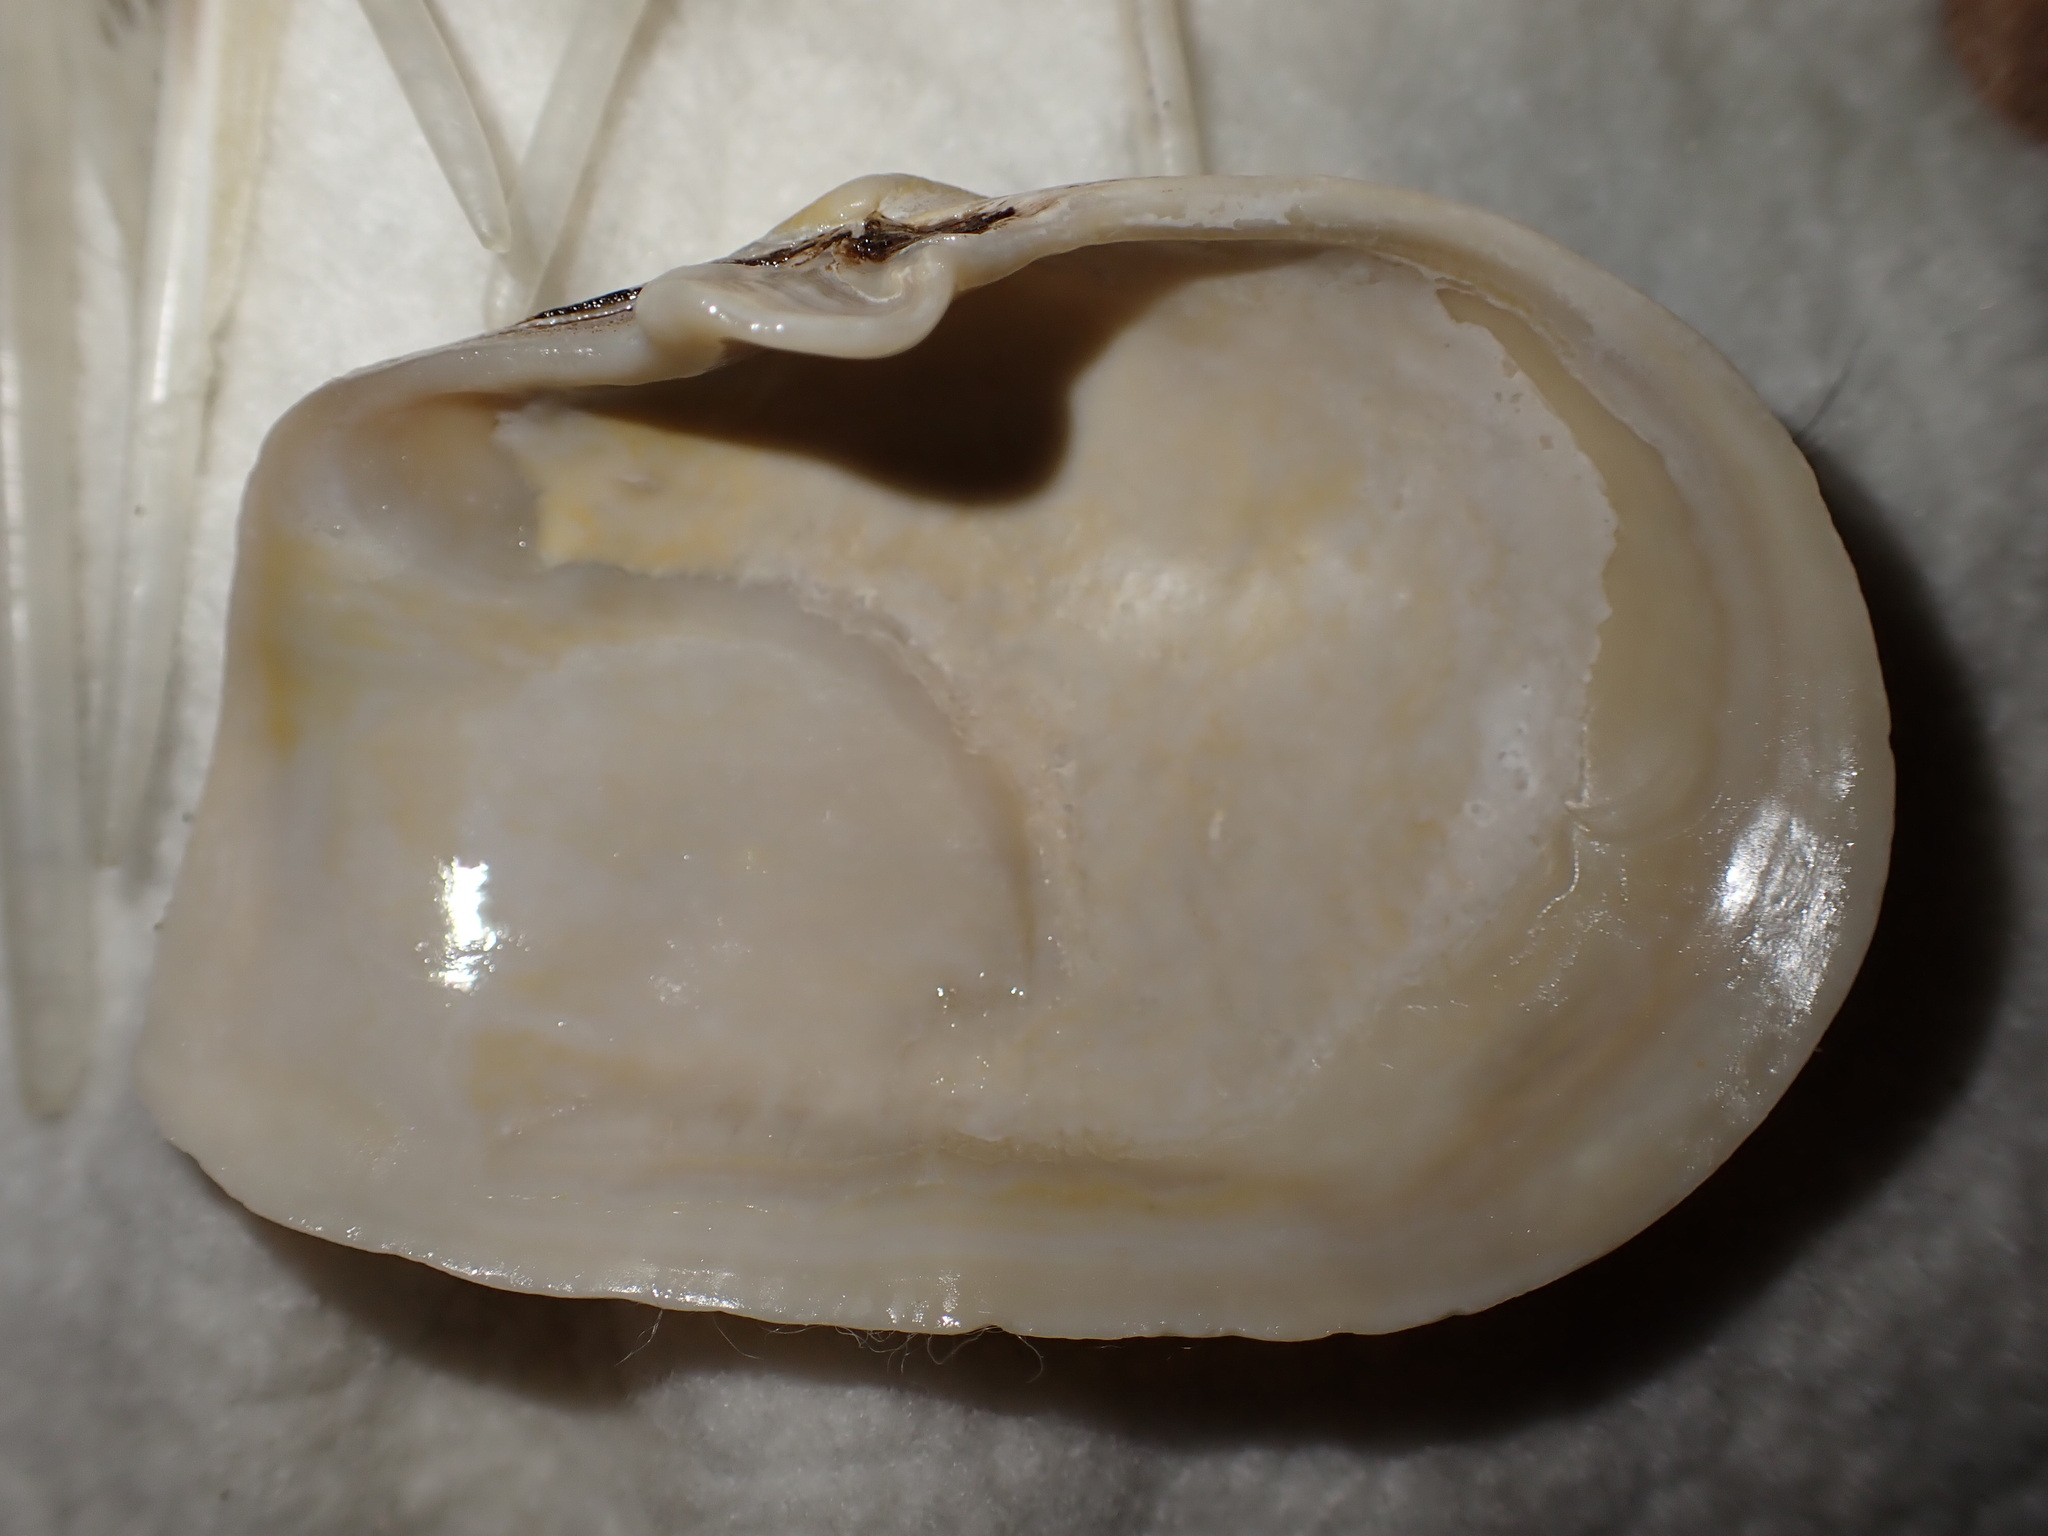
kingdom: Animalia
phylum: Mollusca
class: Bivalvia
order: Myida
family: Myidae
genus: Mya
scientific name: Mya truncata
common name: Blunt gaper
